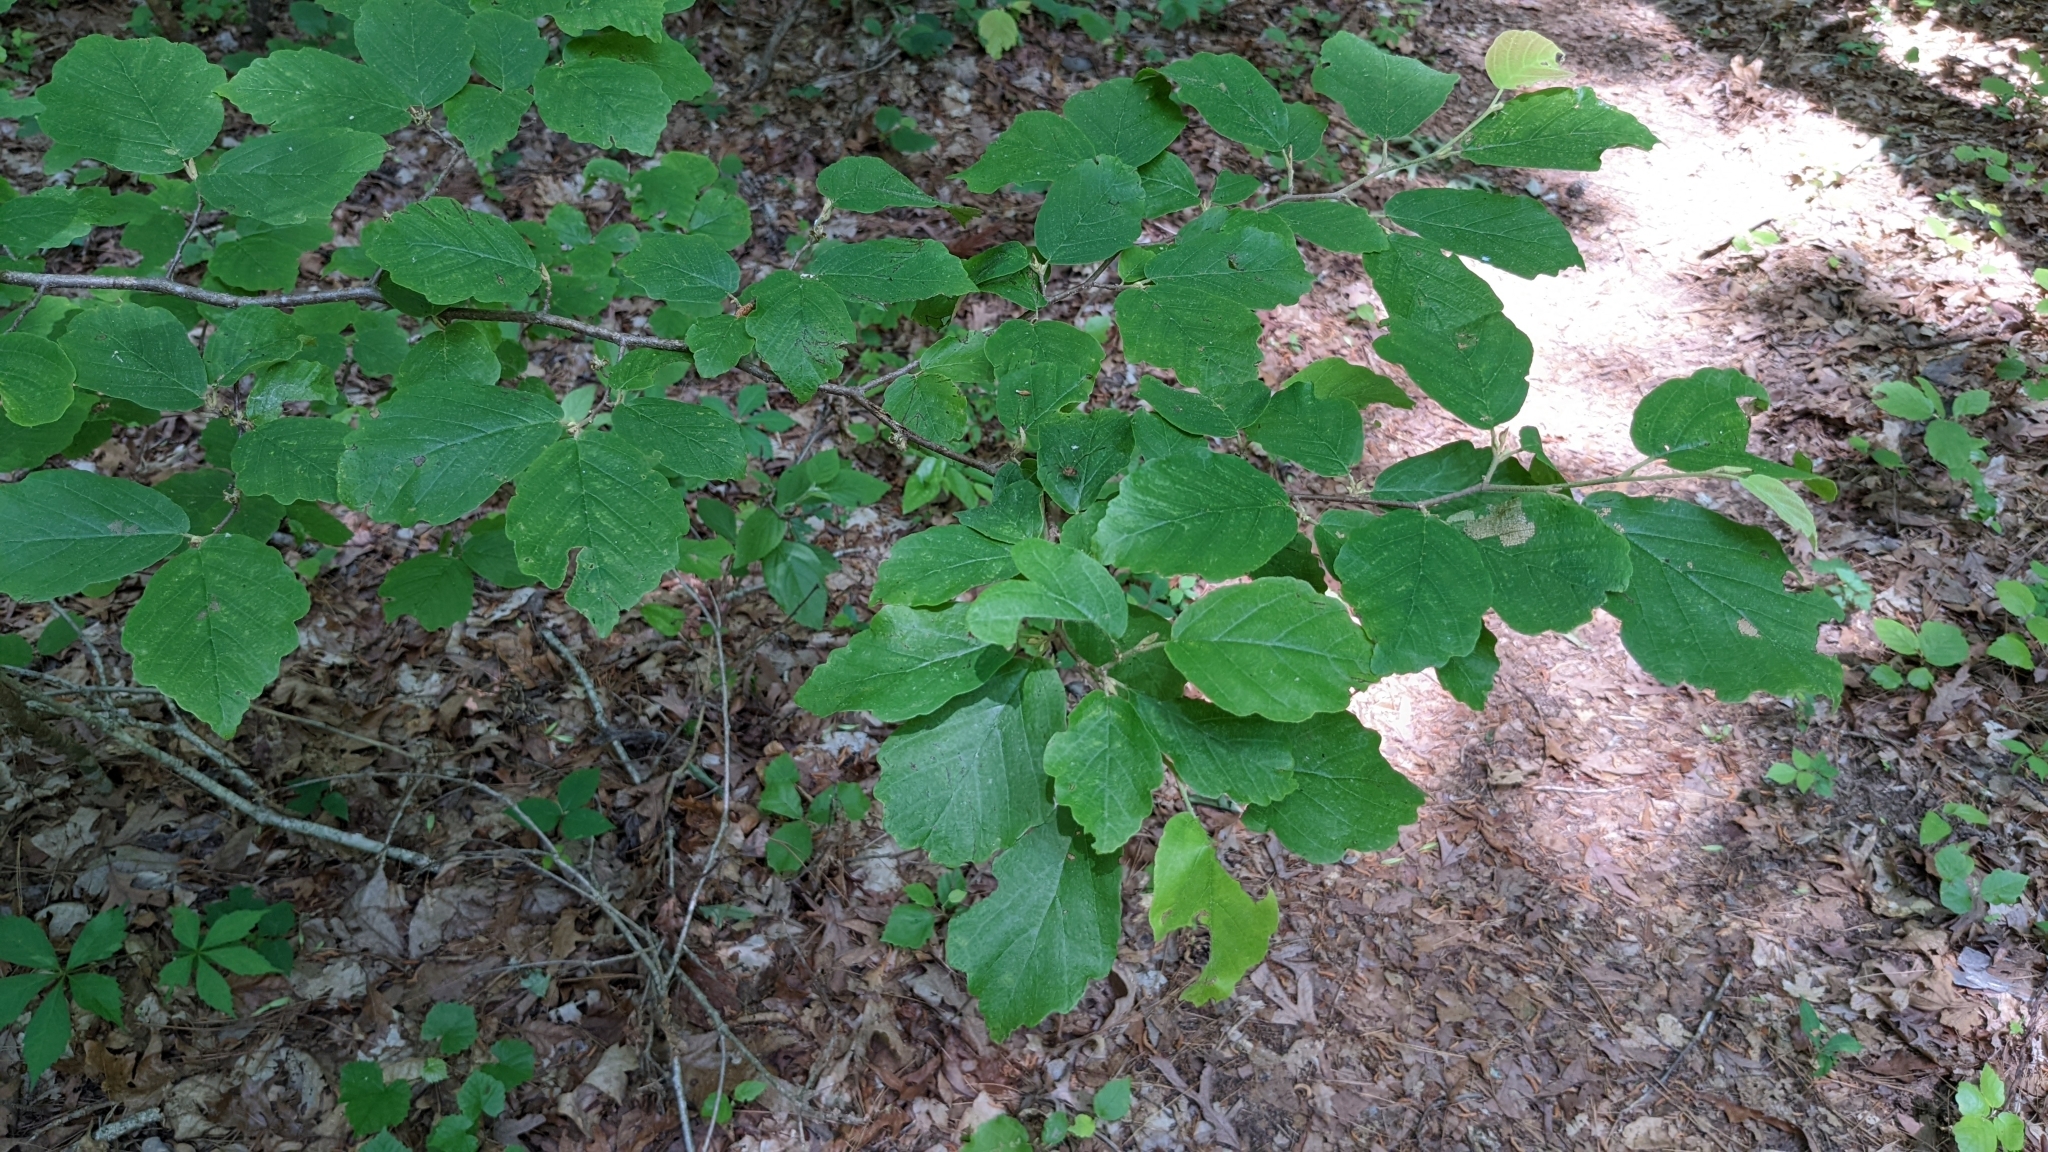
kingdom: Plantae
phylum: Tracheophyta
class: Magnoliopsida
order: Saxifragales
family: Hamamelidaceae
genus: Hamamelis
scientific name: Hamamelis virginiana
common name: Witch-hazel
